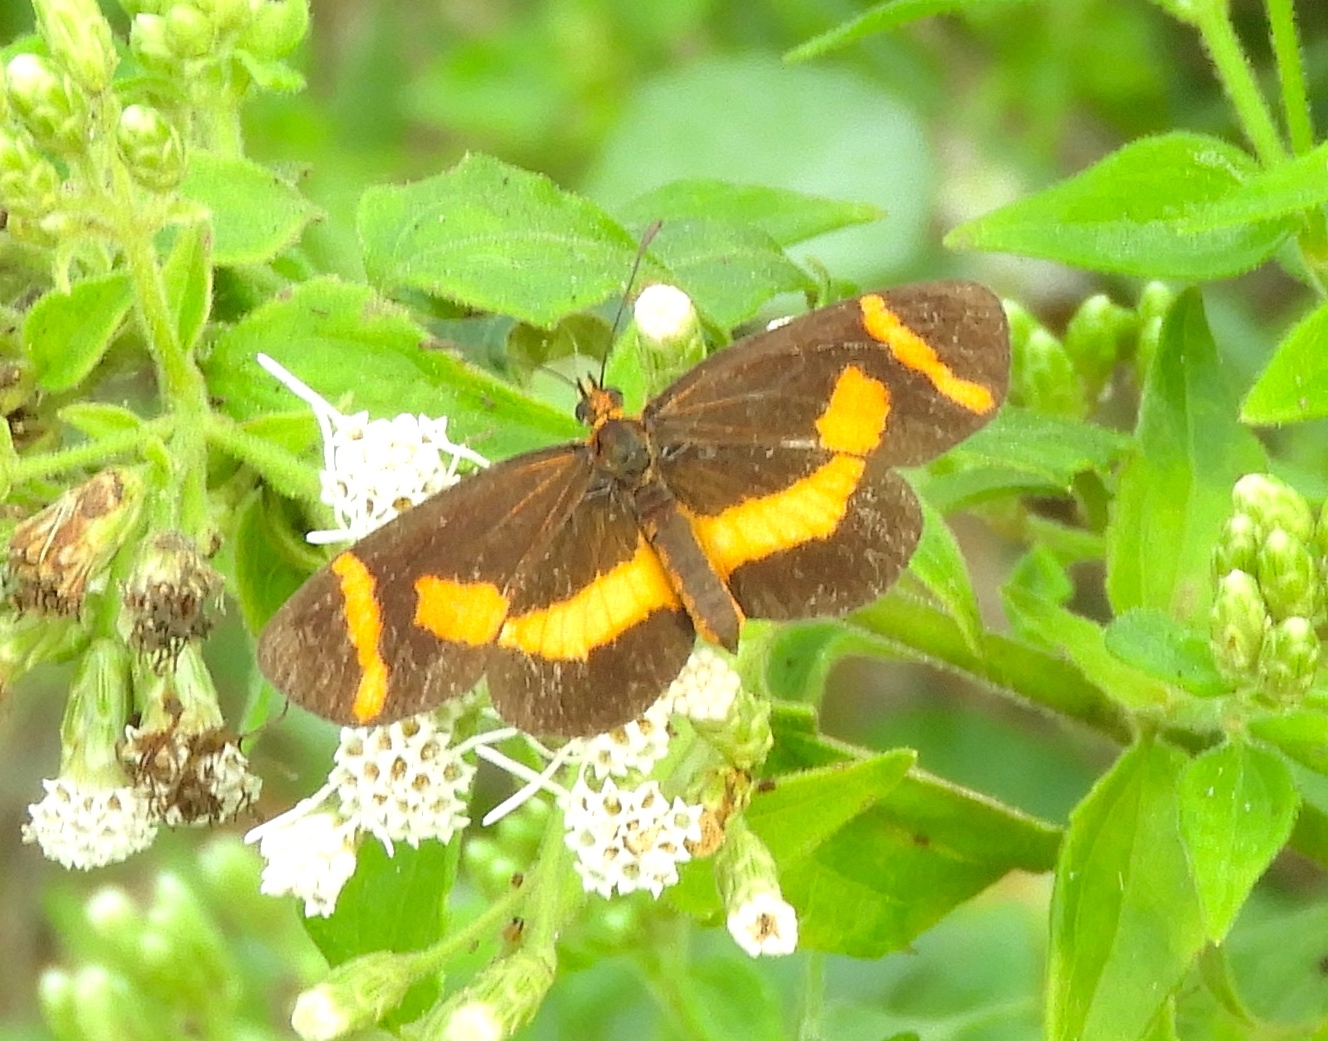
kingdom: Animalia
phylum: Arthropoda
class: Insecta
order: Lepidoptera
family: Nymphalidae
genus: Microtia
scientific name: Microtia elva
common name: Elf
